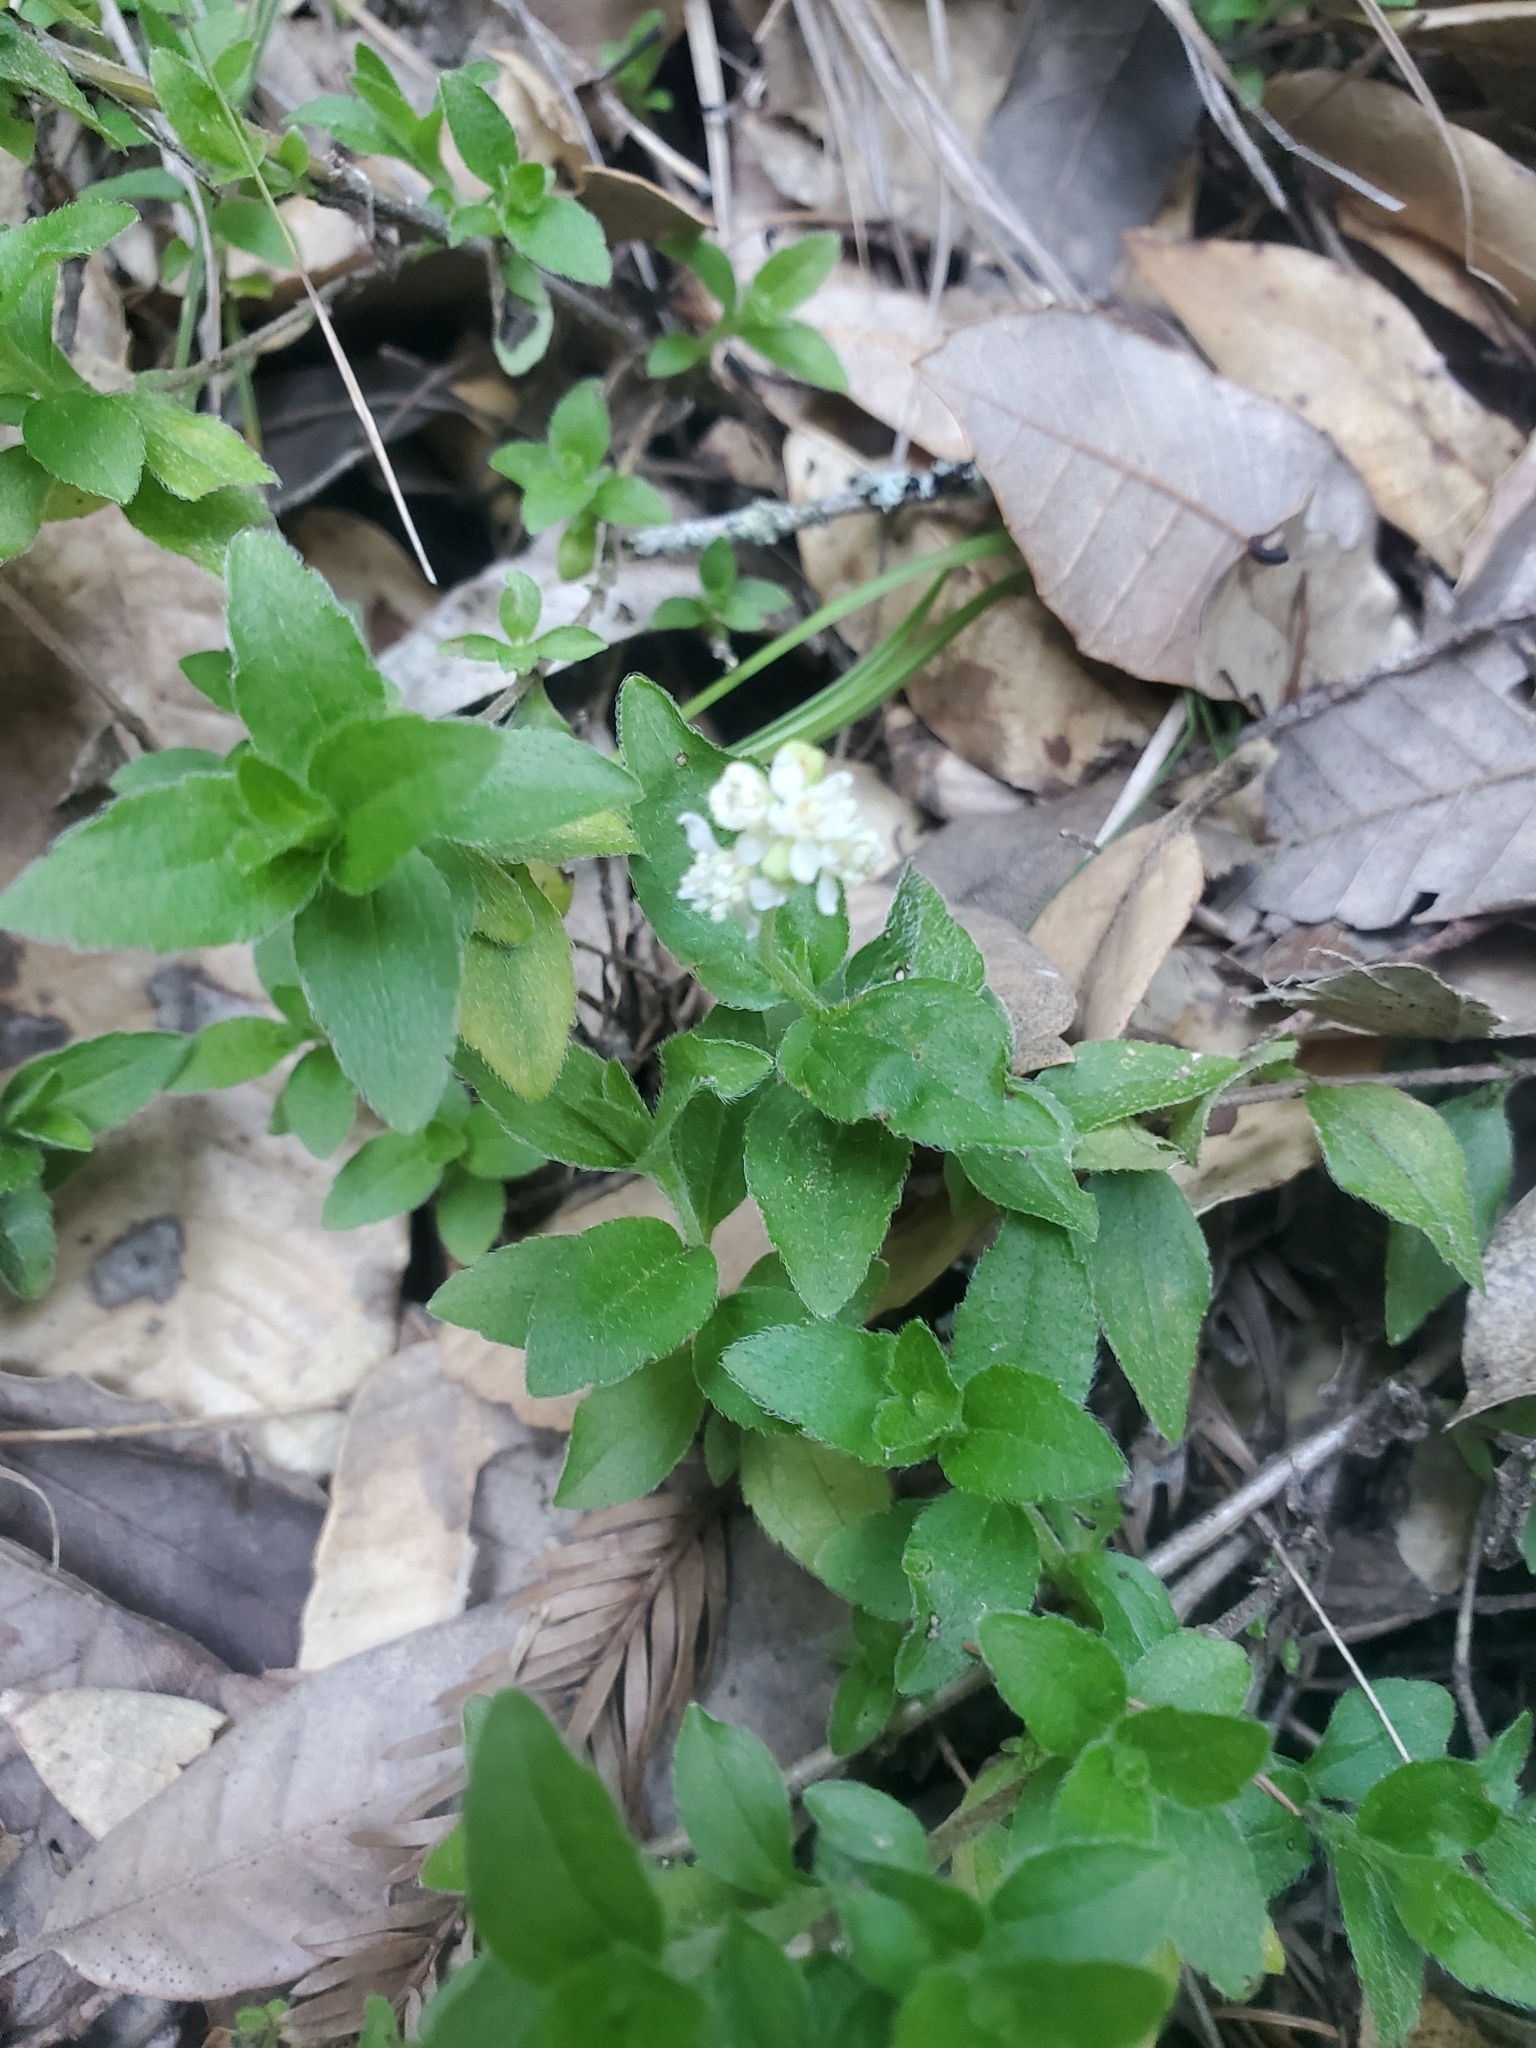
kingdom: Plantae
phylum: Tracheophyta
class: Magnoliopsida
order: Cornales
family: Hydrangeaceae
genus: Whipplea
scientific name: Whipplea modesta
